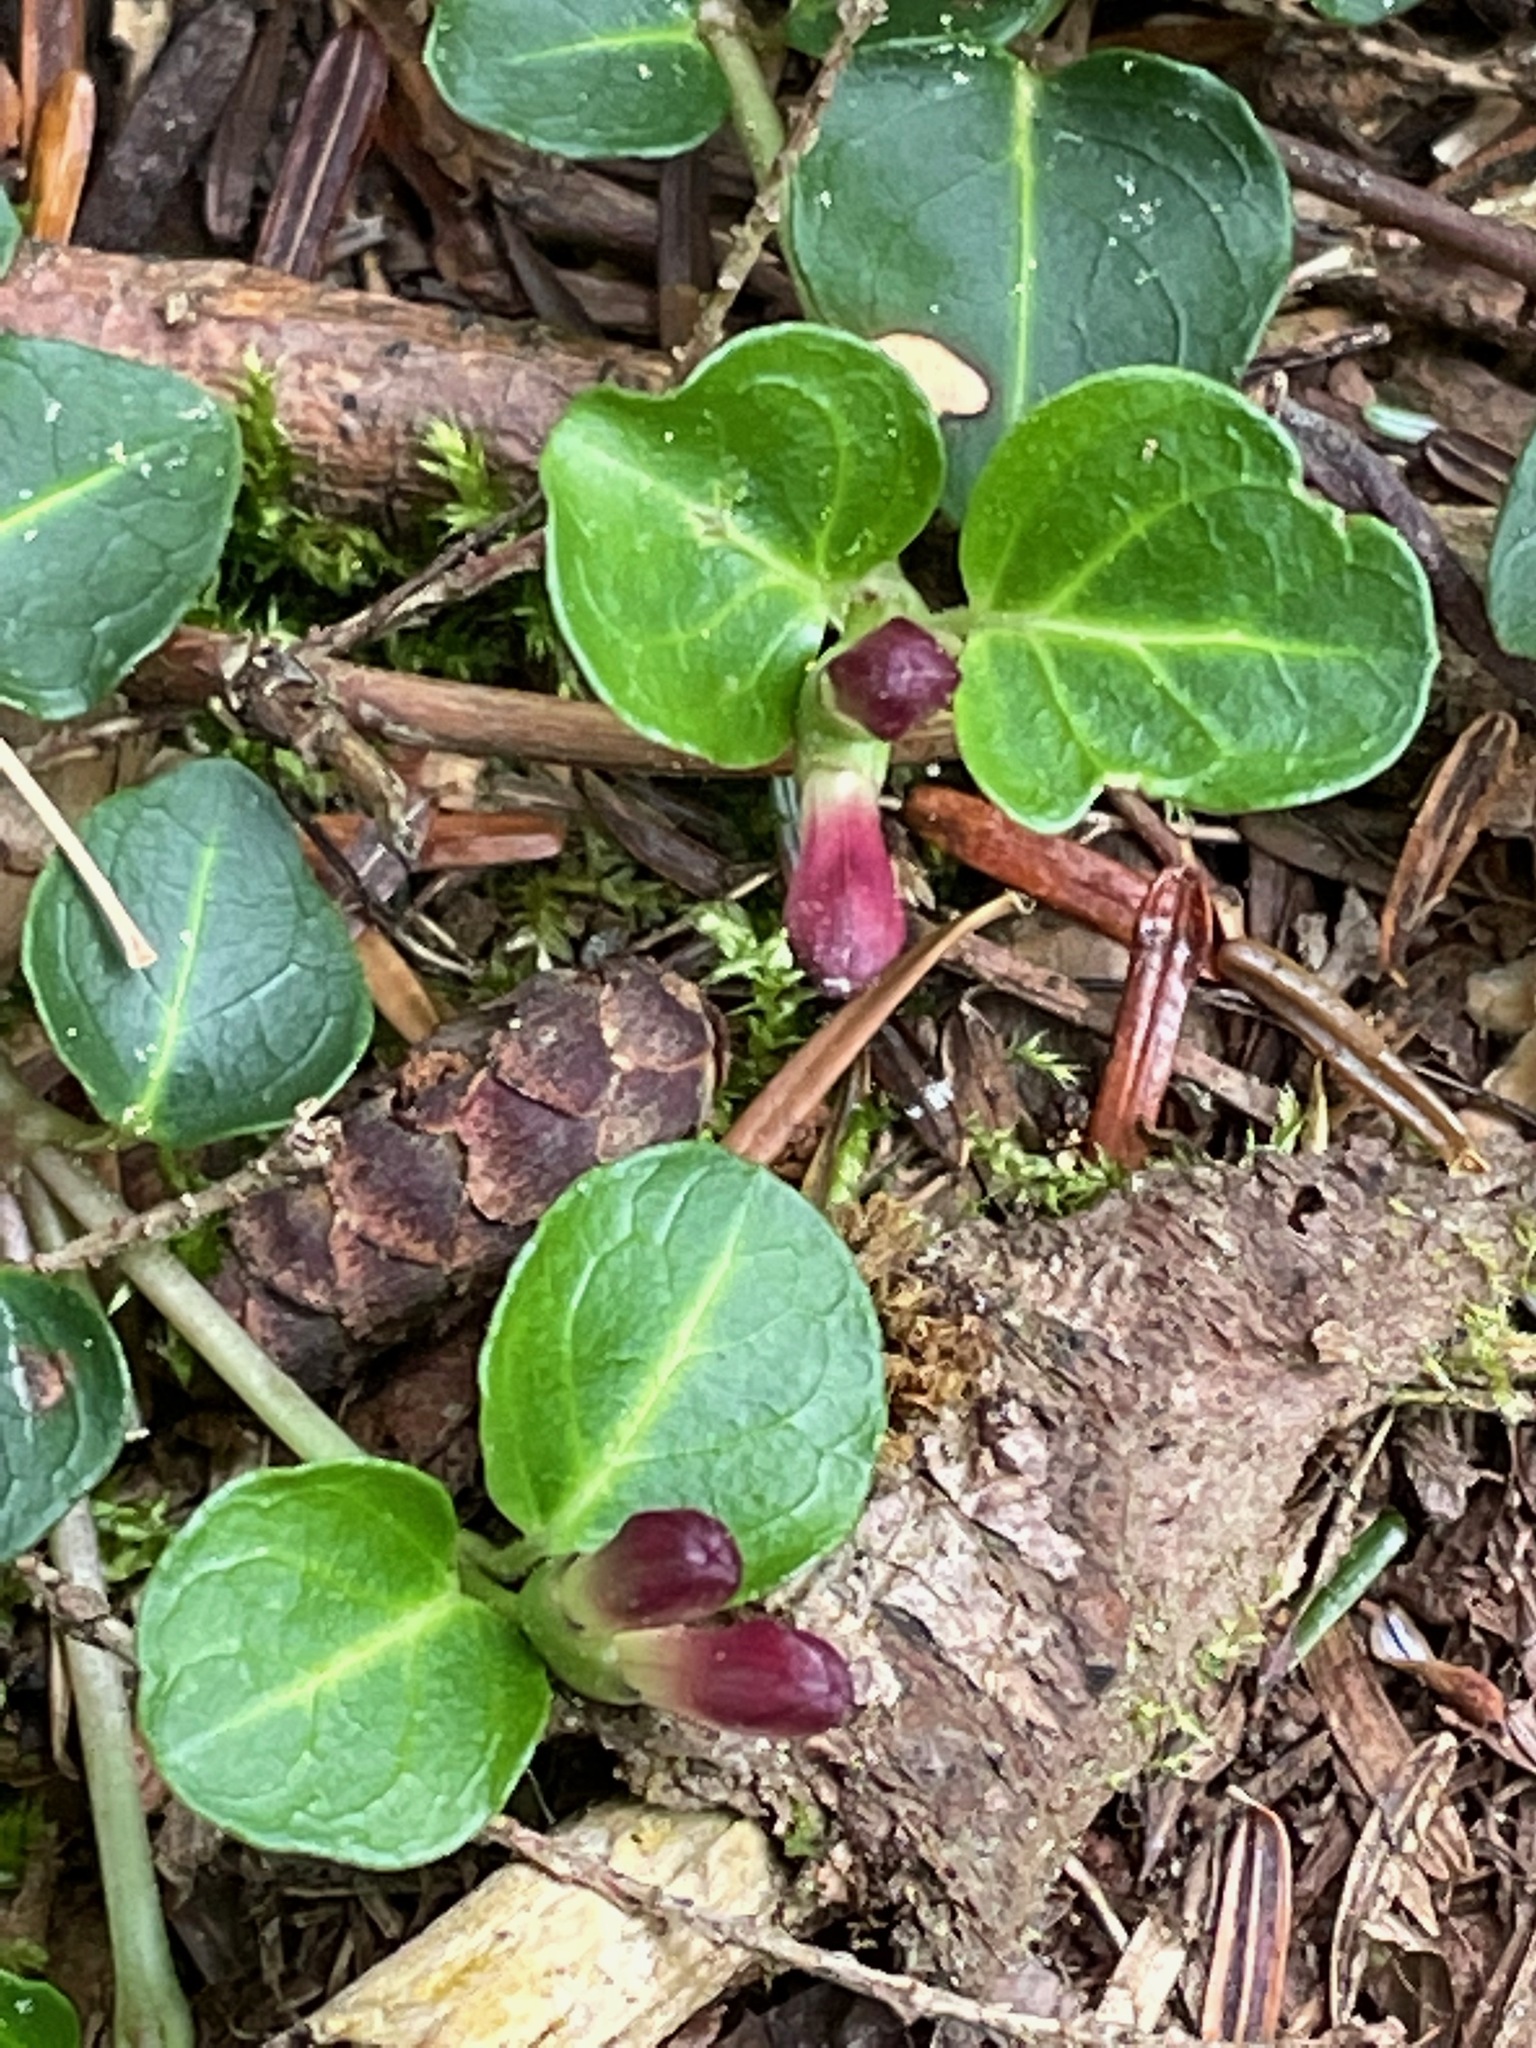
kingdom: Plantae
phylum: Tracheophyta
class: Magnoliopsida
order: Gentianales
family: Rubiaceae
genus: Mitchella
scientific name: Mitchella repens
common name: Partridge-berry
